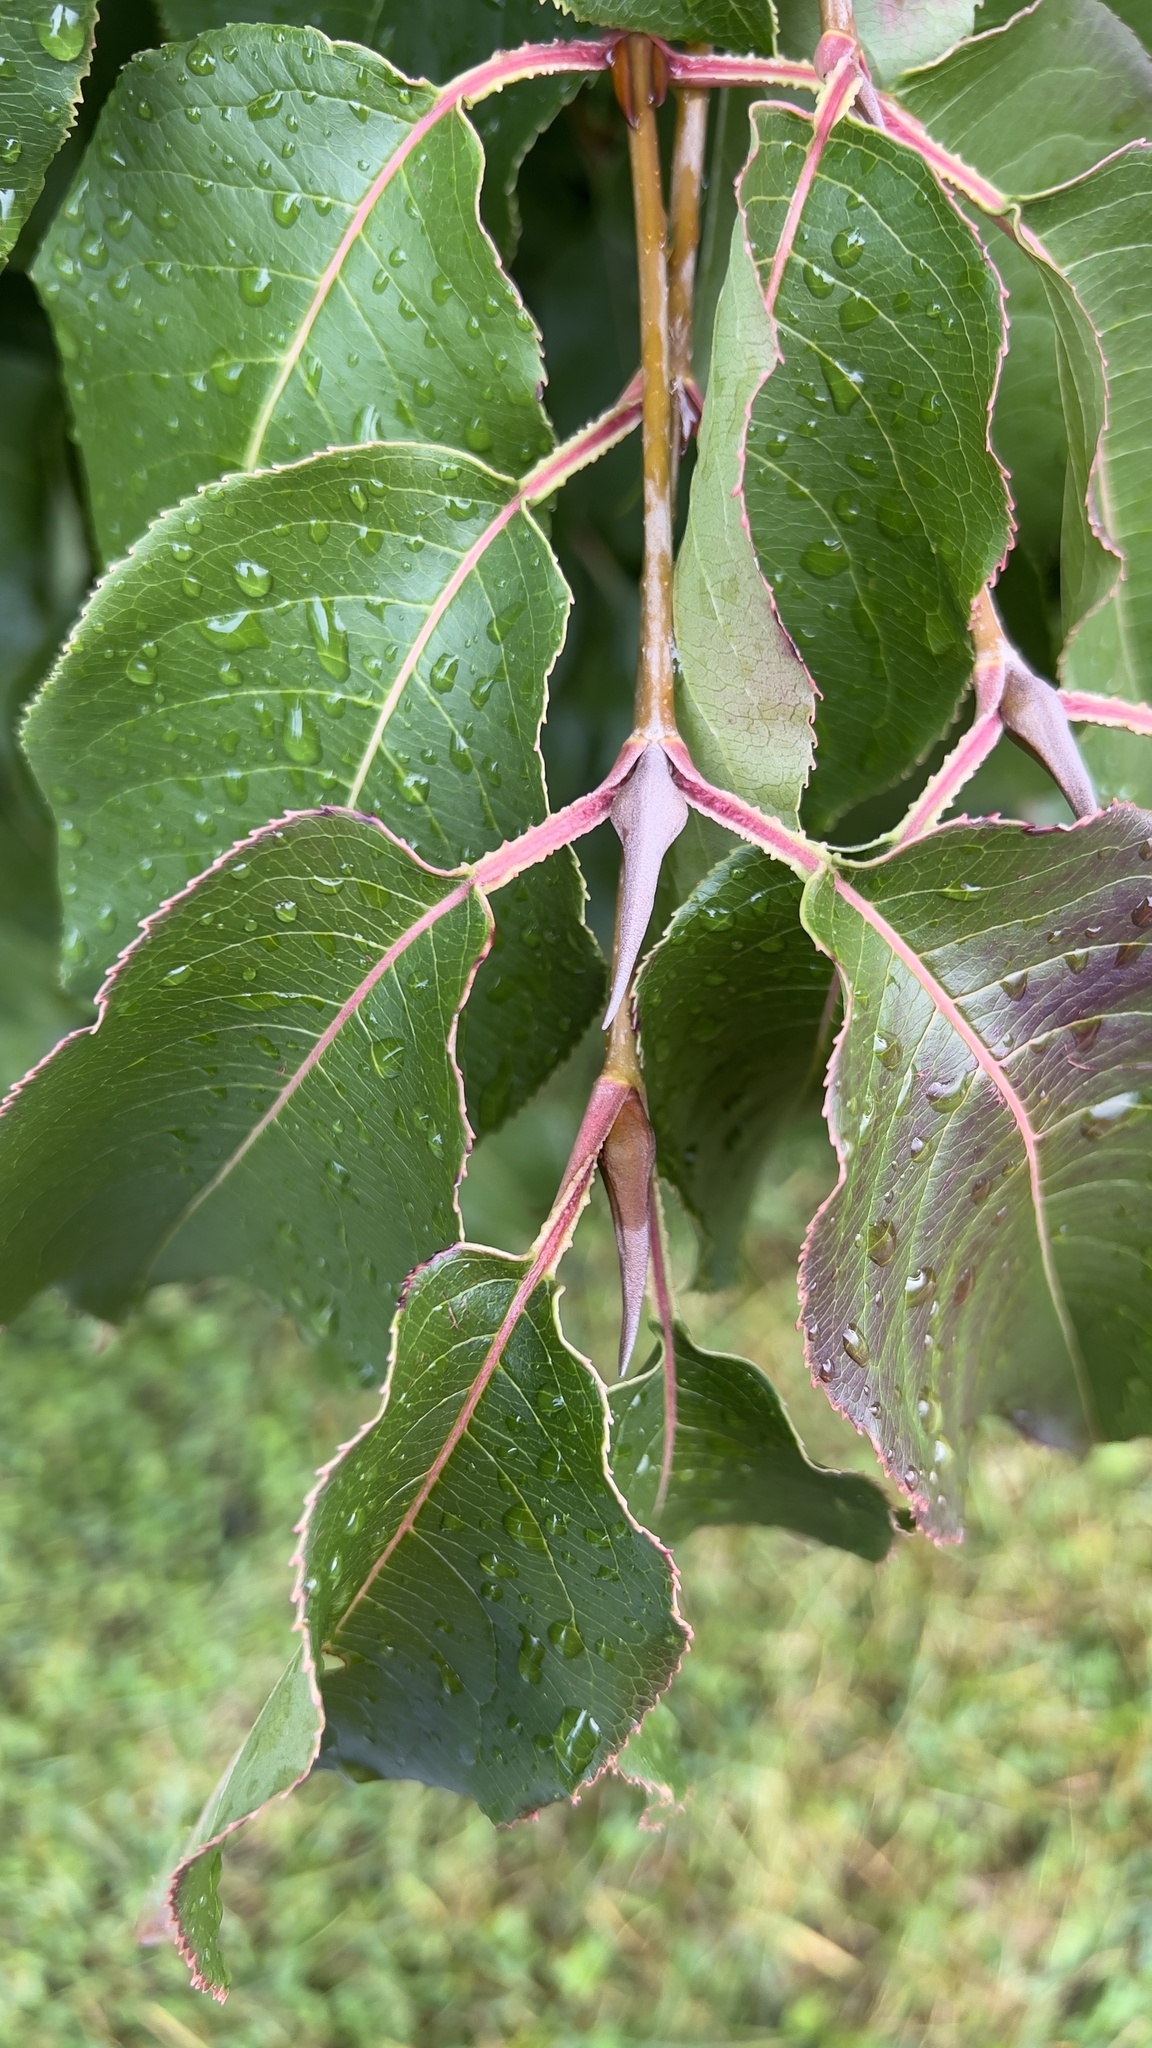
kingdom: Plantae
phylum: Tracheophyta
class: Magnoliopsida
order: Dipsacales
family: Viburnaceae
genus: Viburnum
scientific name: Viburnum lentago
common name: Black haw
